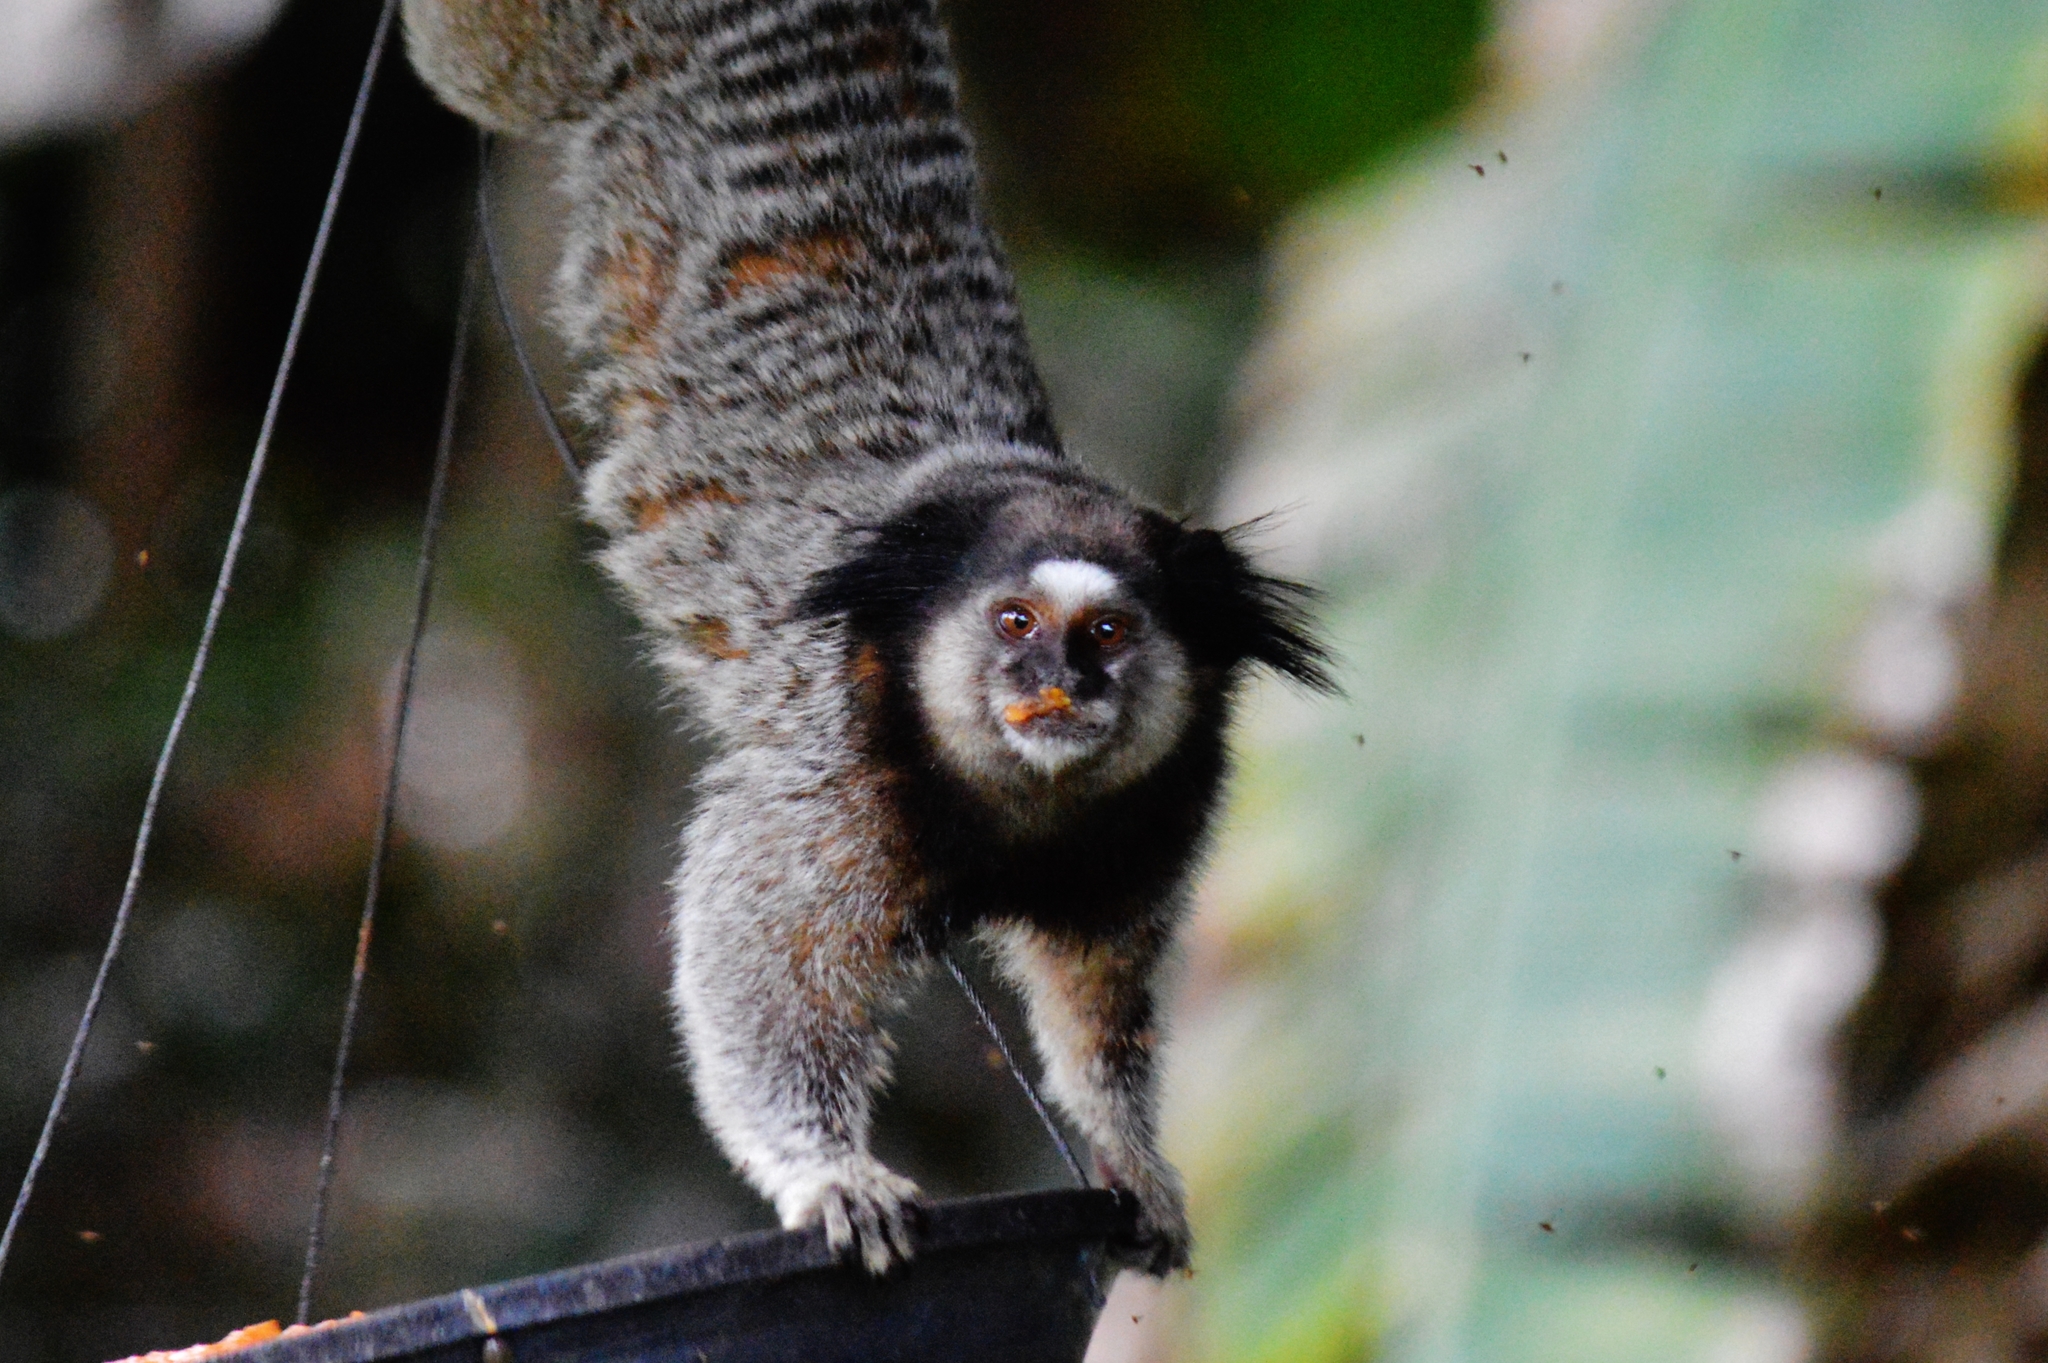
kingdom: Animalia
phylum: Chordata
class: Mammalia
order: Primates
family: Callitrichidae
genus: Callithrix
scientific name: Callithrix penicillata
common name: Black-tufted marmoset
